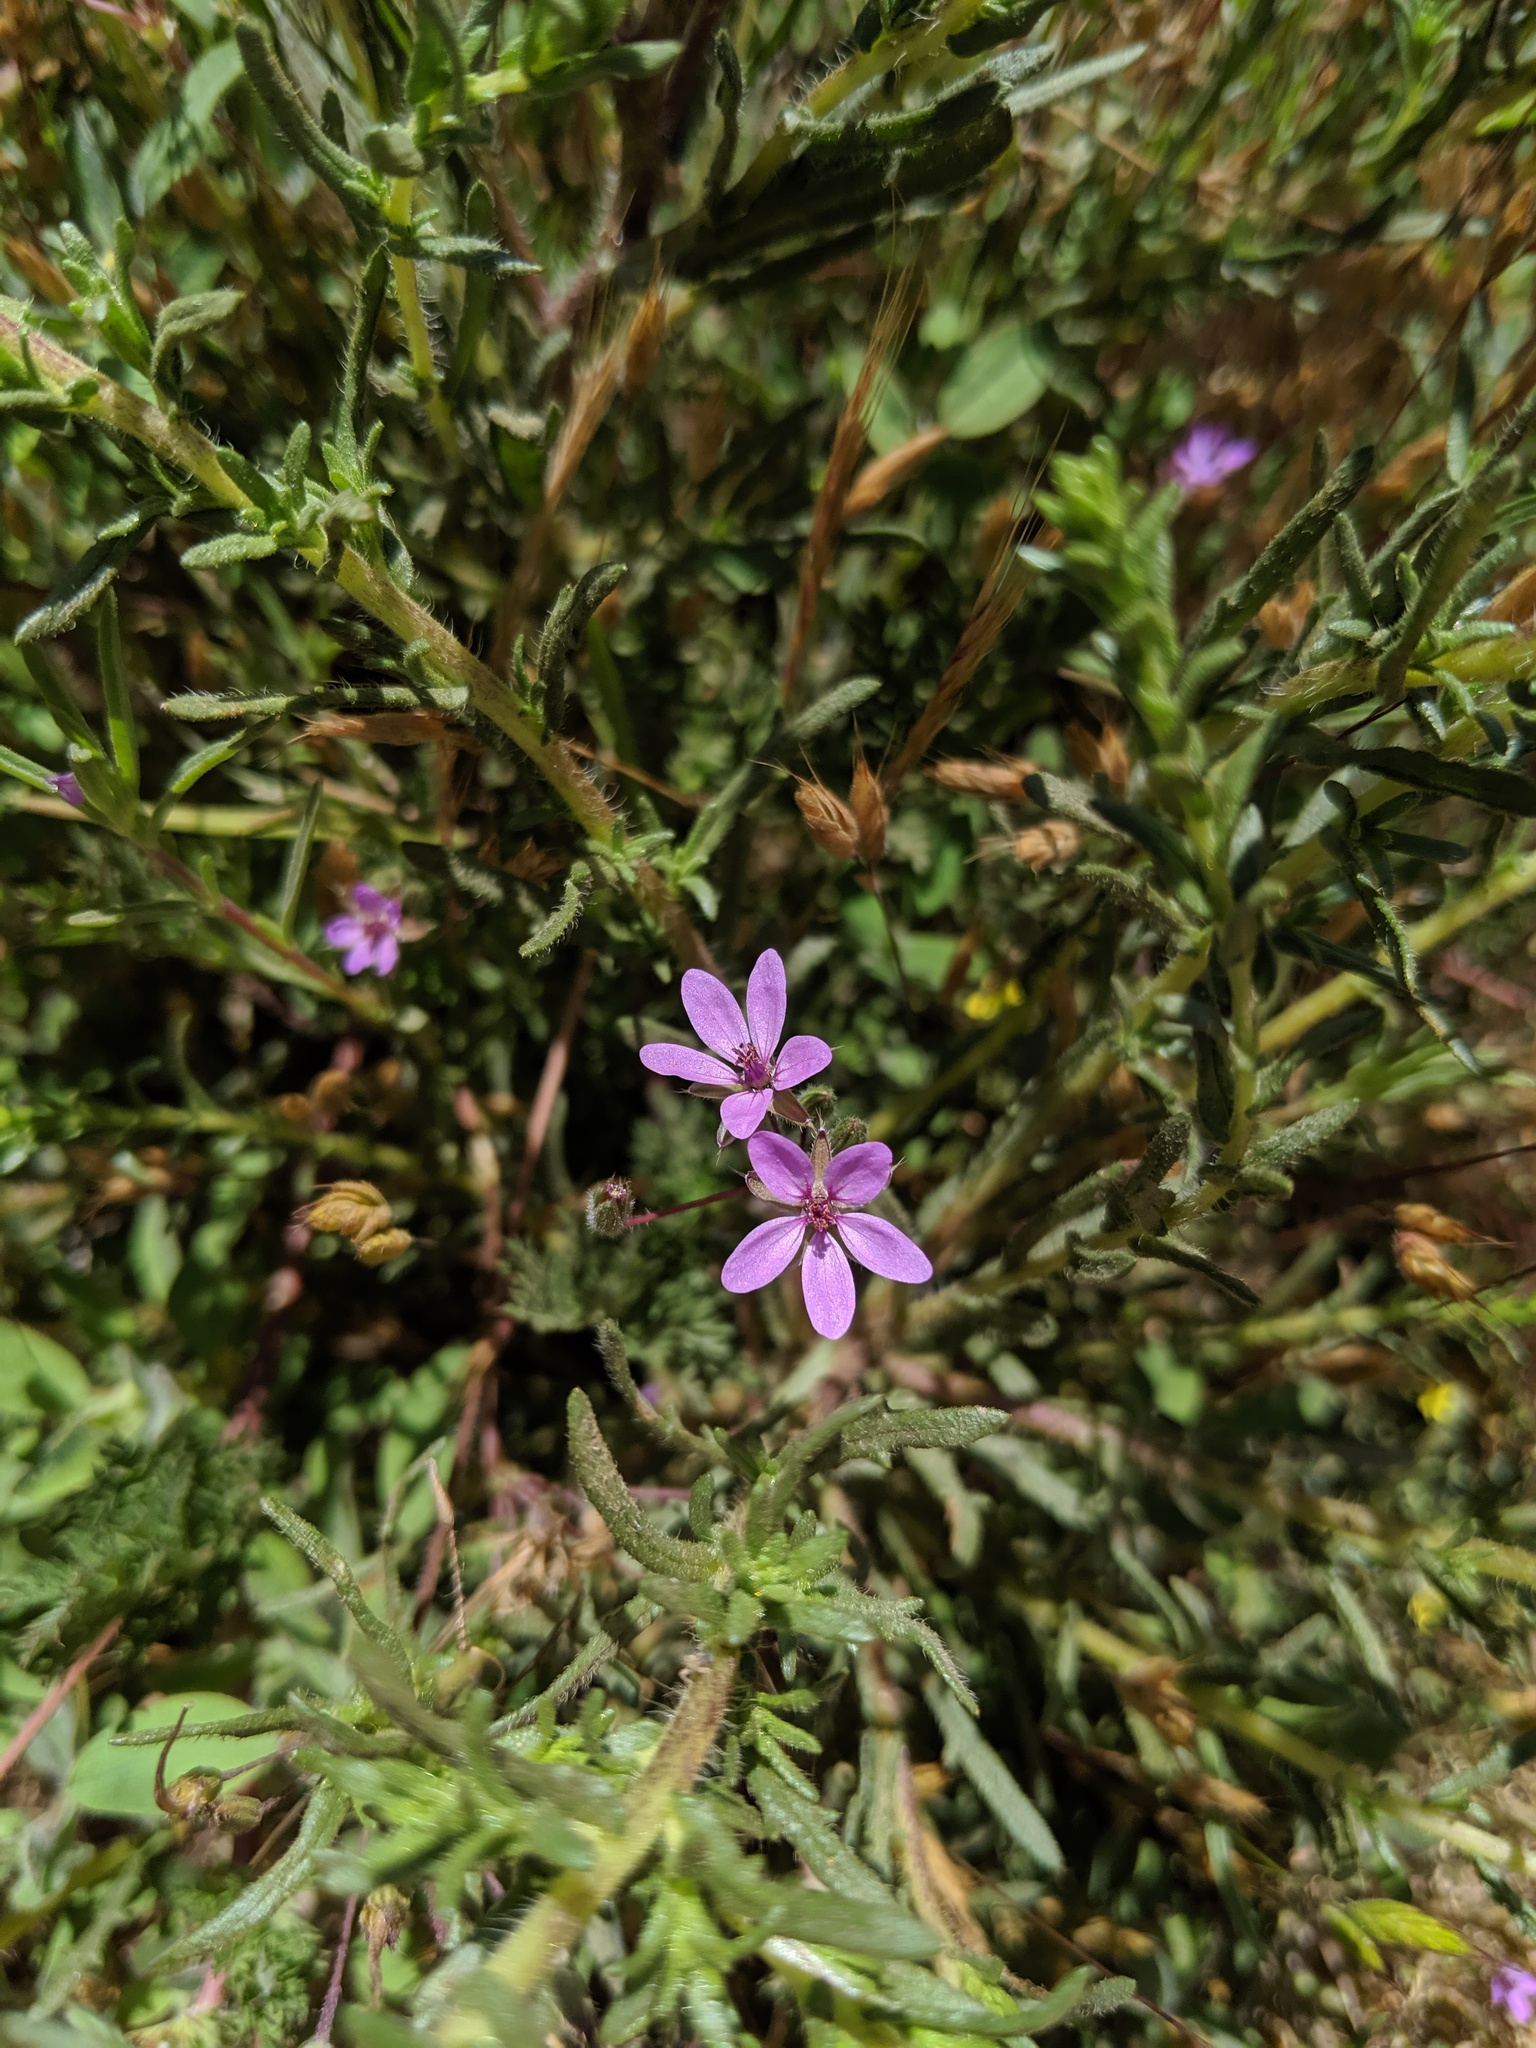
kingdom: Plantae
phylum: Tracheophyta
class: Magnoliopsida
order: Geraniales
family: Geraniaceae
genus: Erodium
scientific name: Erodium cicutarium
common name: Common stork's-bill
